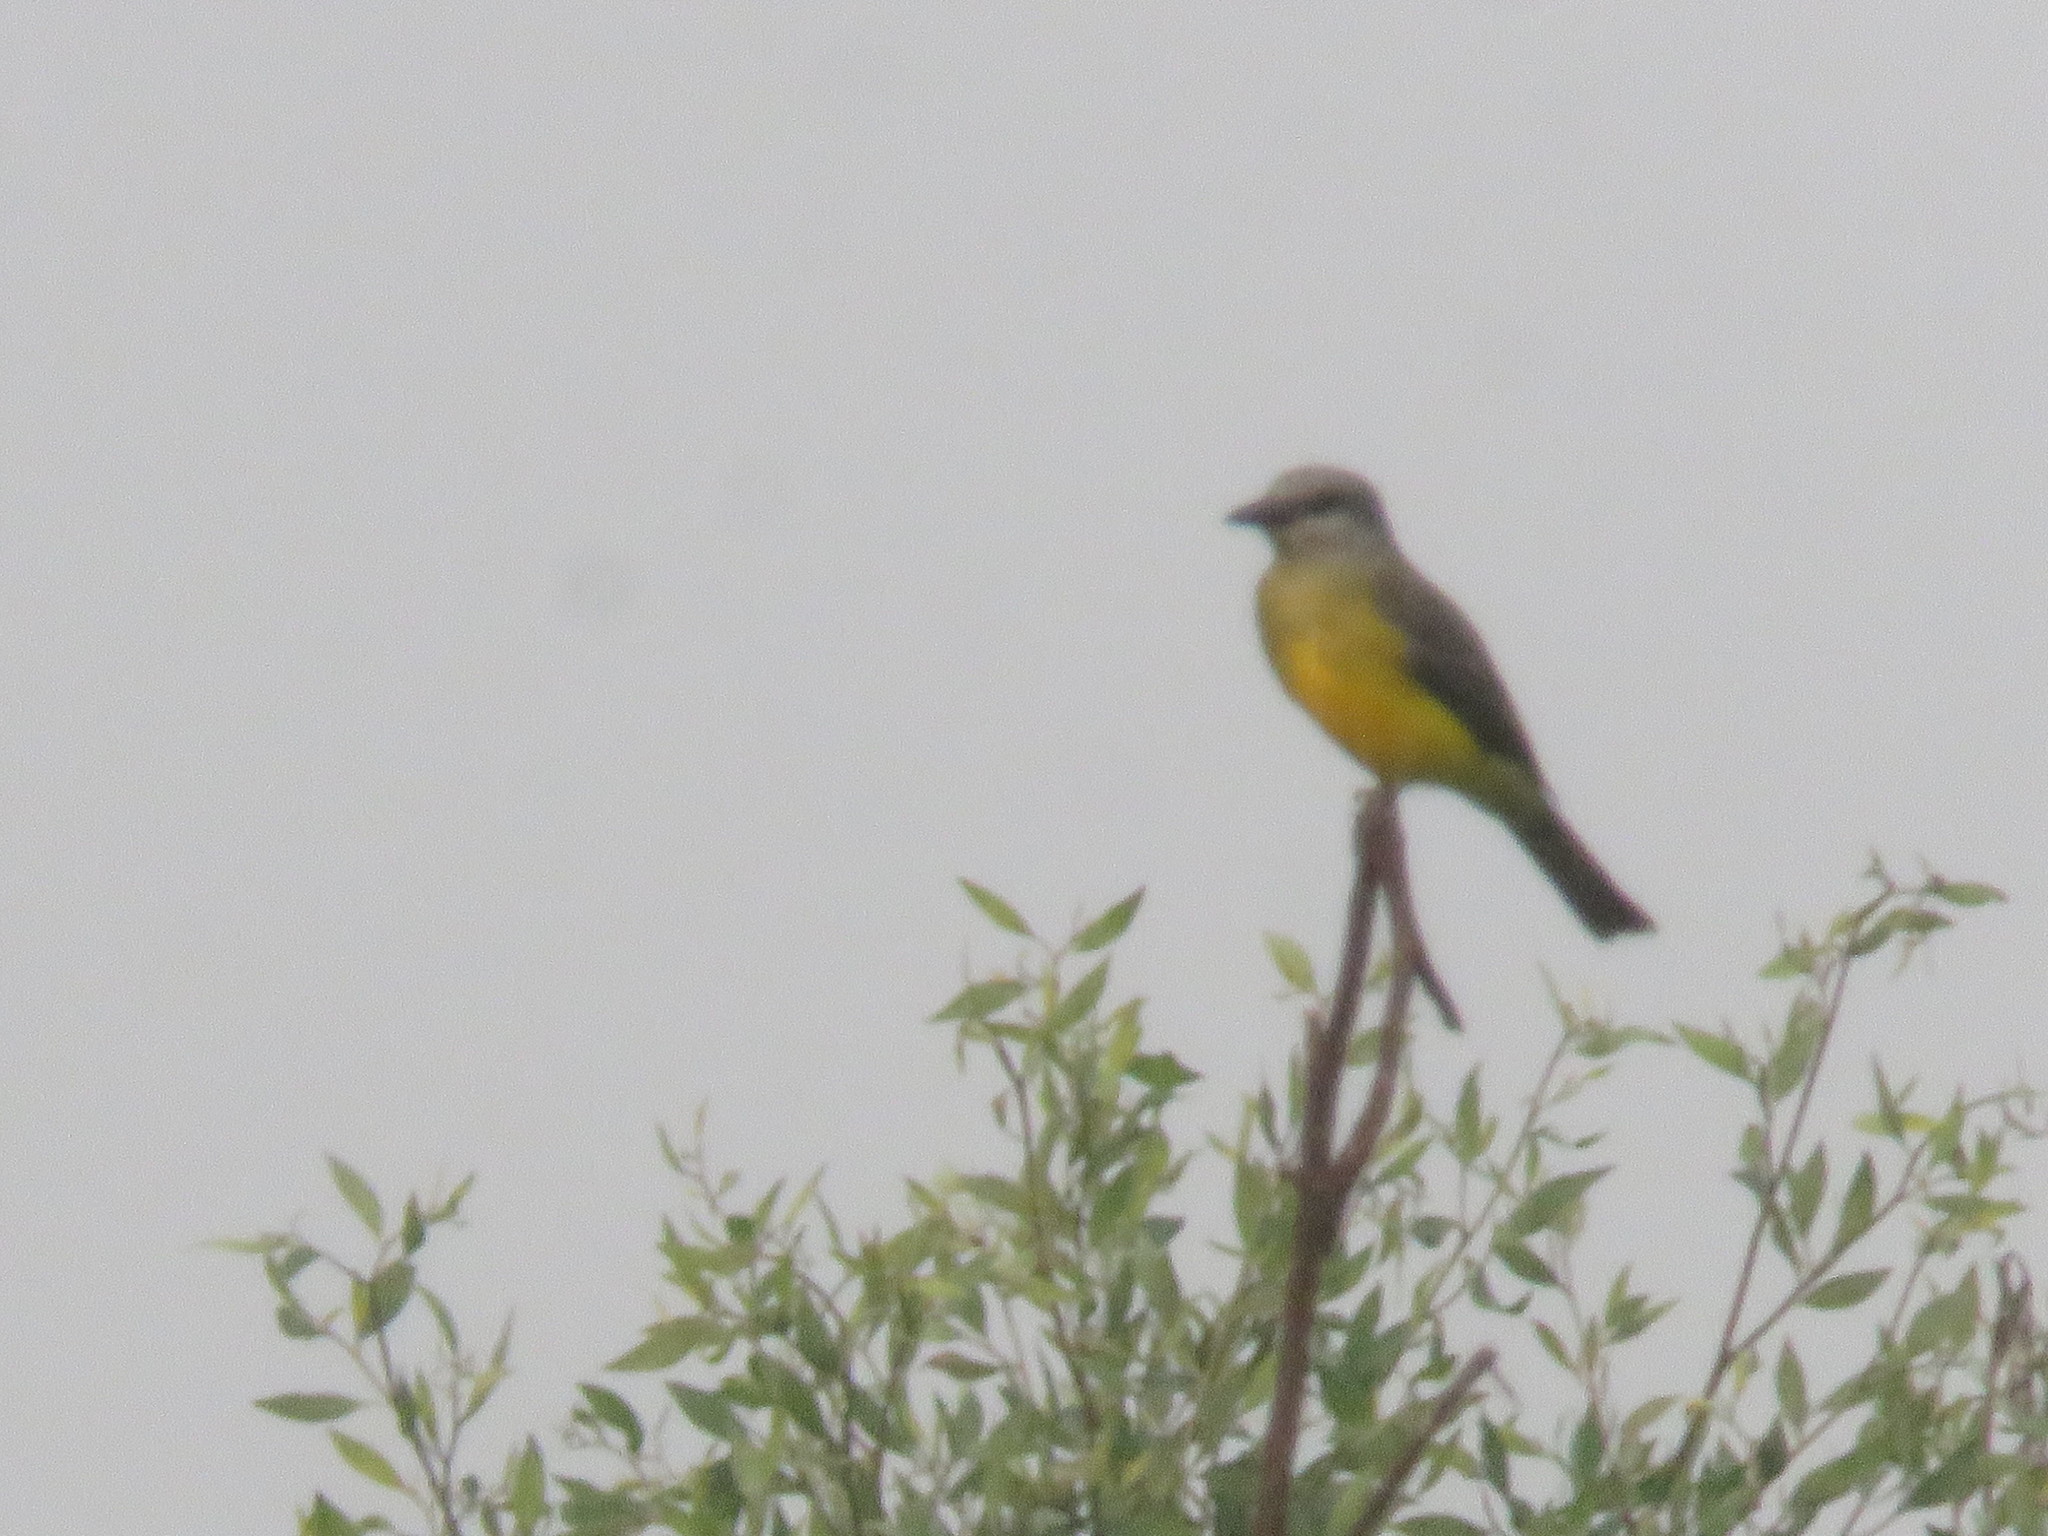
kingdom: Animalia
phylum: Chordata
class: Aves
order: Passeriformes
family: Tyrannidae
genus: Tyrannus
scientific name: Tyrannus melancholicus
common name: Tropical kingbird
